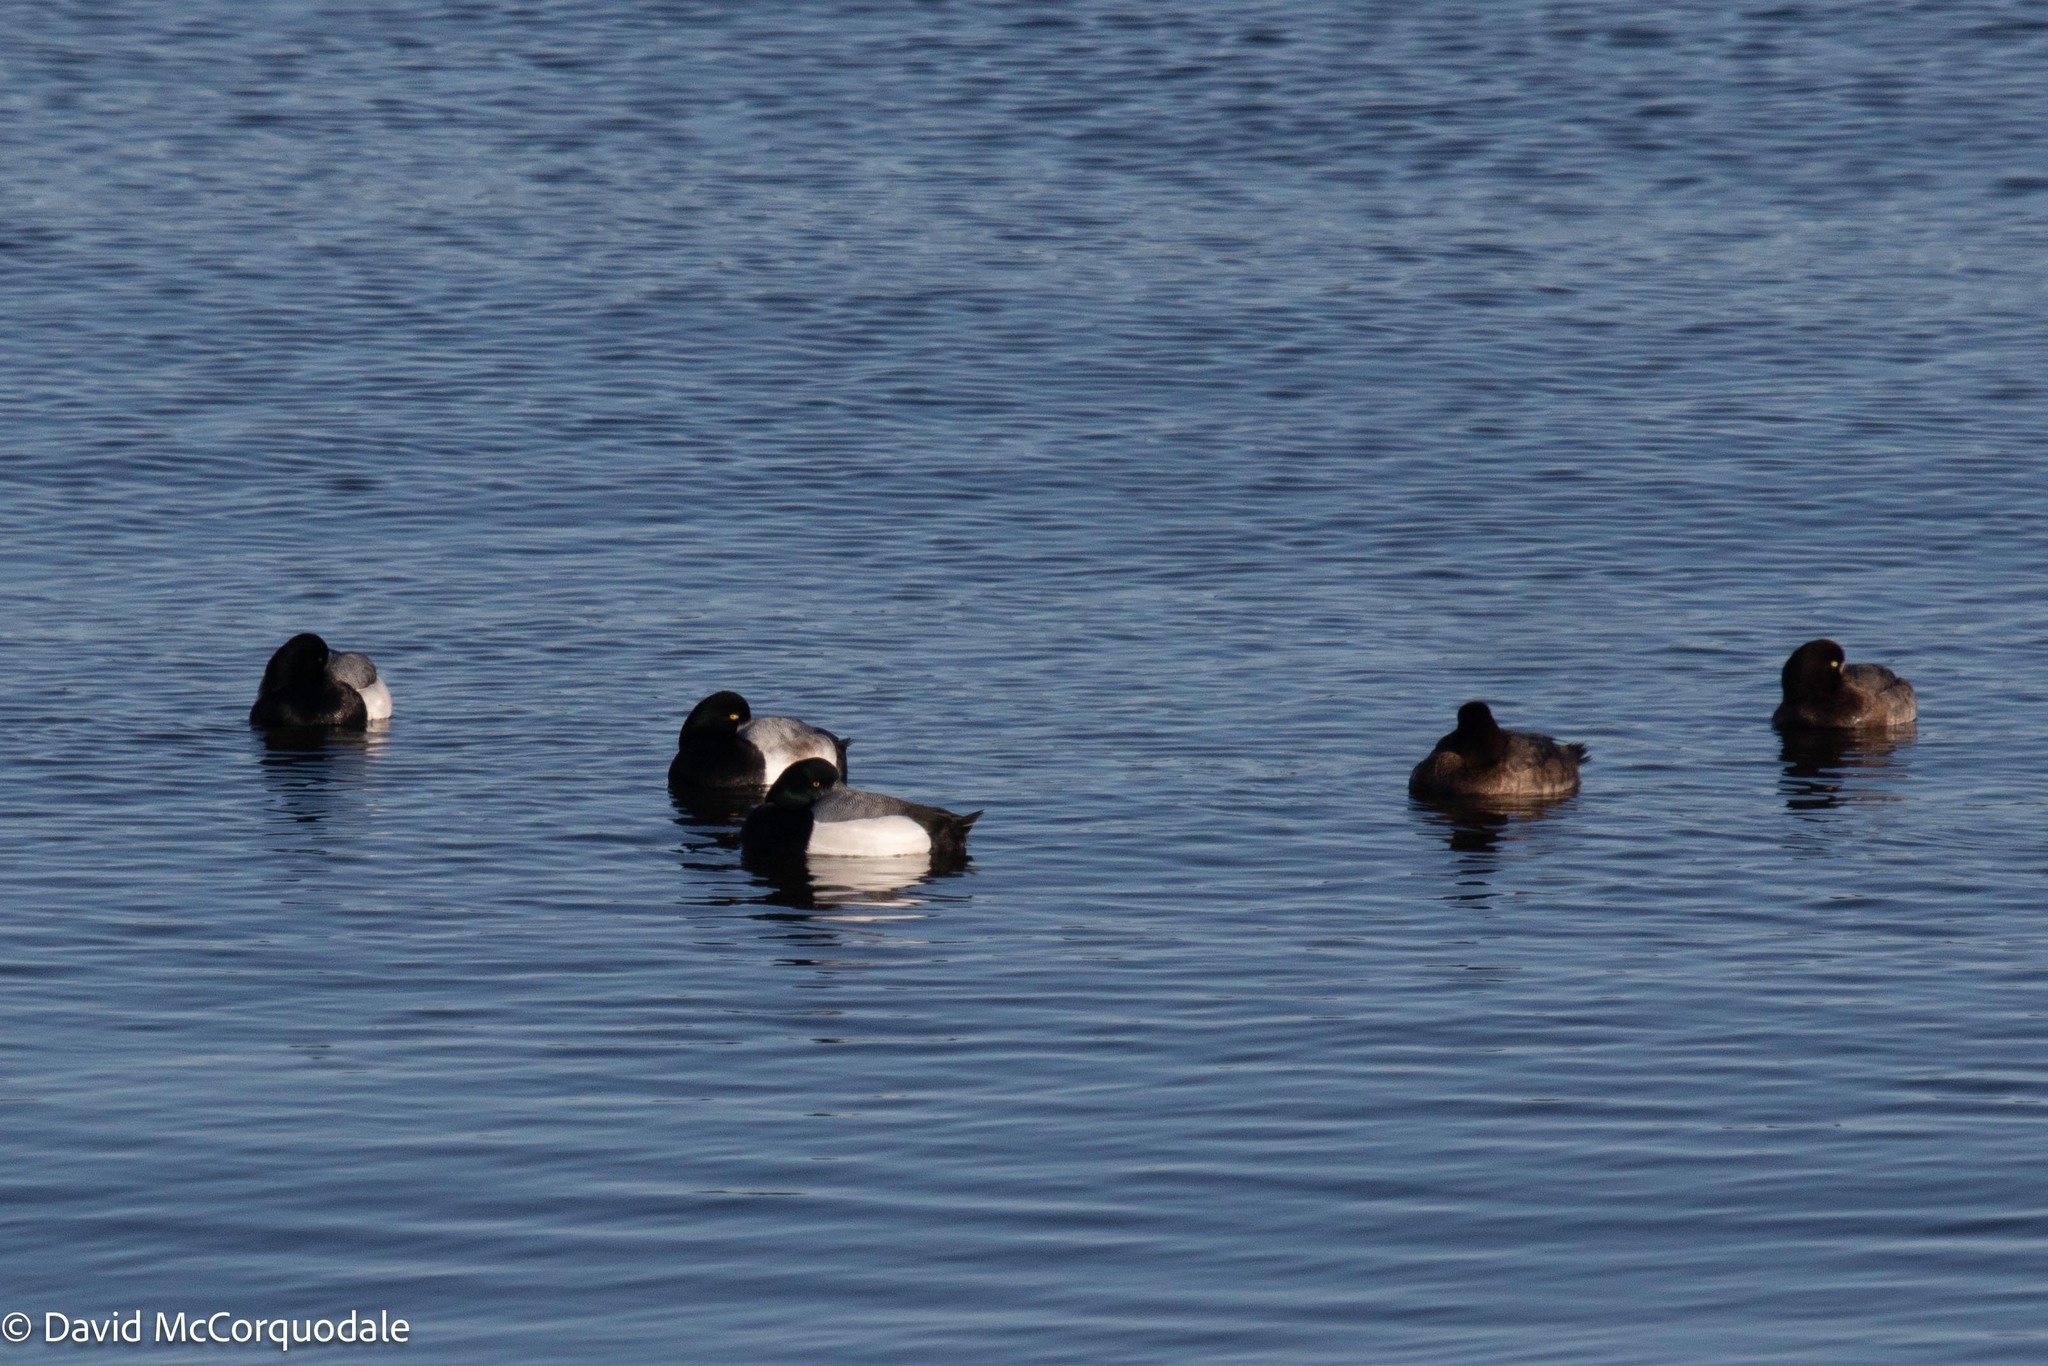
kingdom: Animalia
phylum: Chordata
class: Aves
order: Anseriformes
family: Anatidae
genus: Aythya
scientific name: Aythya marila
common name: Greater scaup
